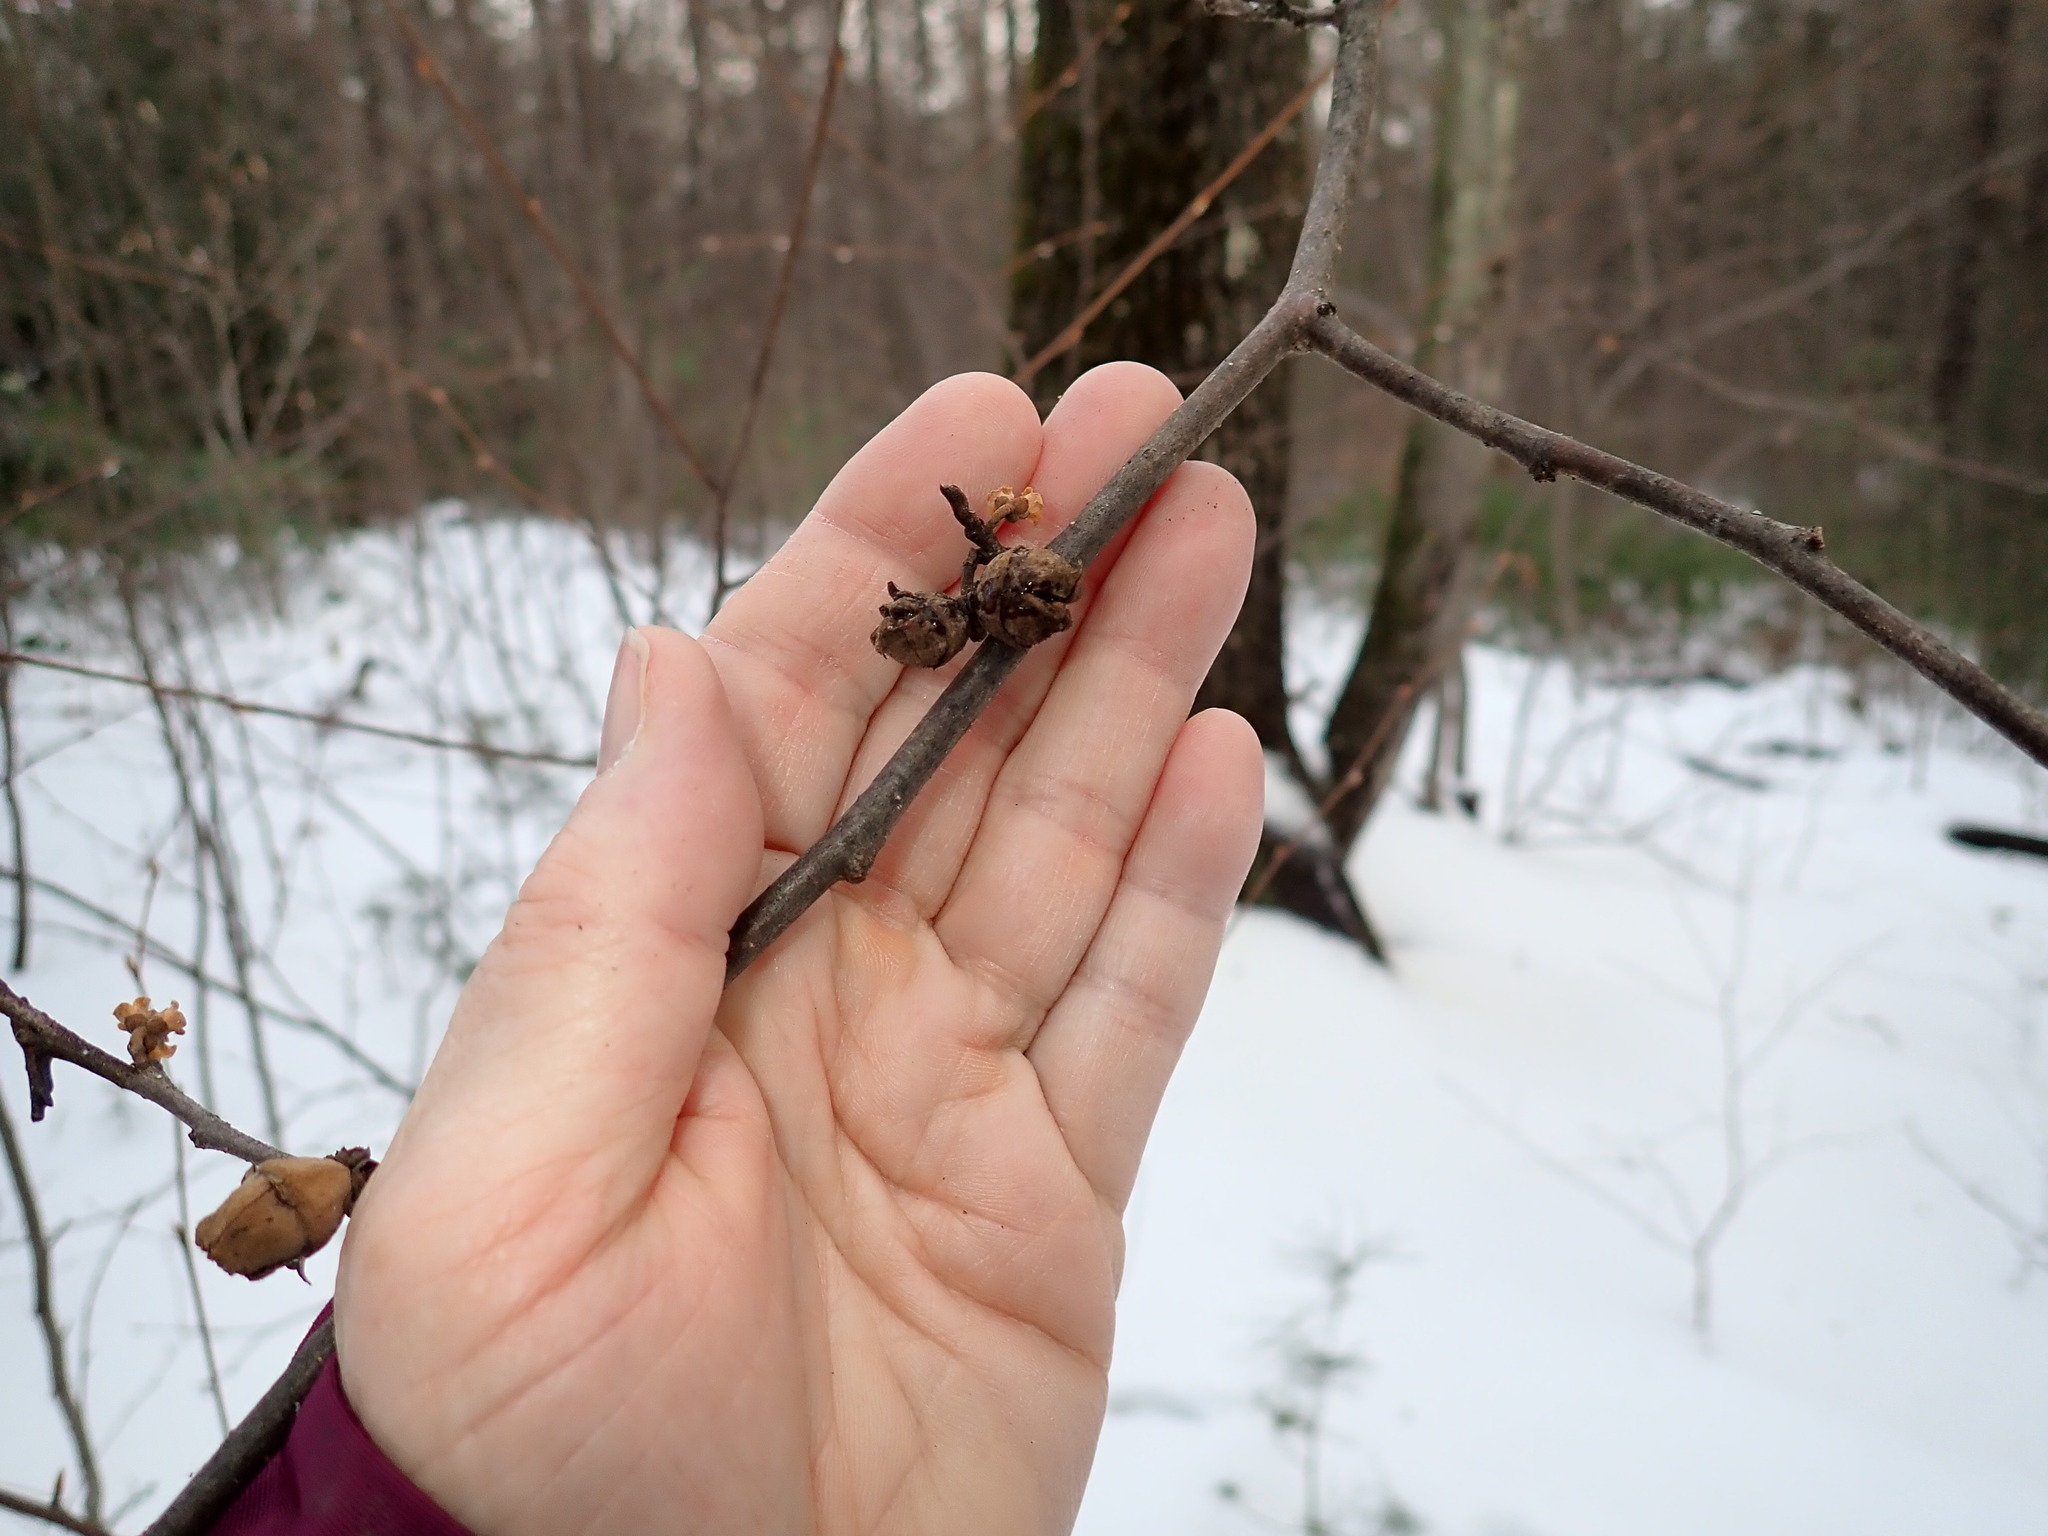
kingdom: Plantae
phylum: Tracheophyta
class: Magnoliopsida
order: Saxifragales
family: Hamamelidaceae
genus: Hamamelis
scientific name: Hamamelis virginiana
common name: Witch-hazel
